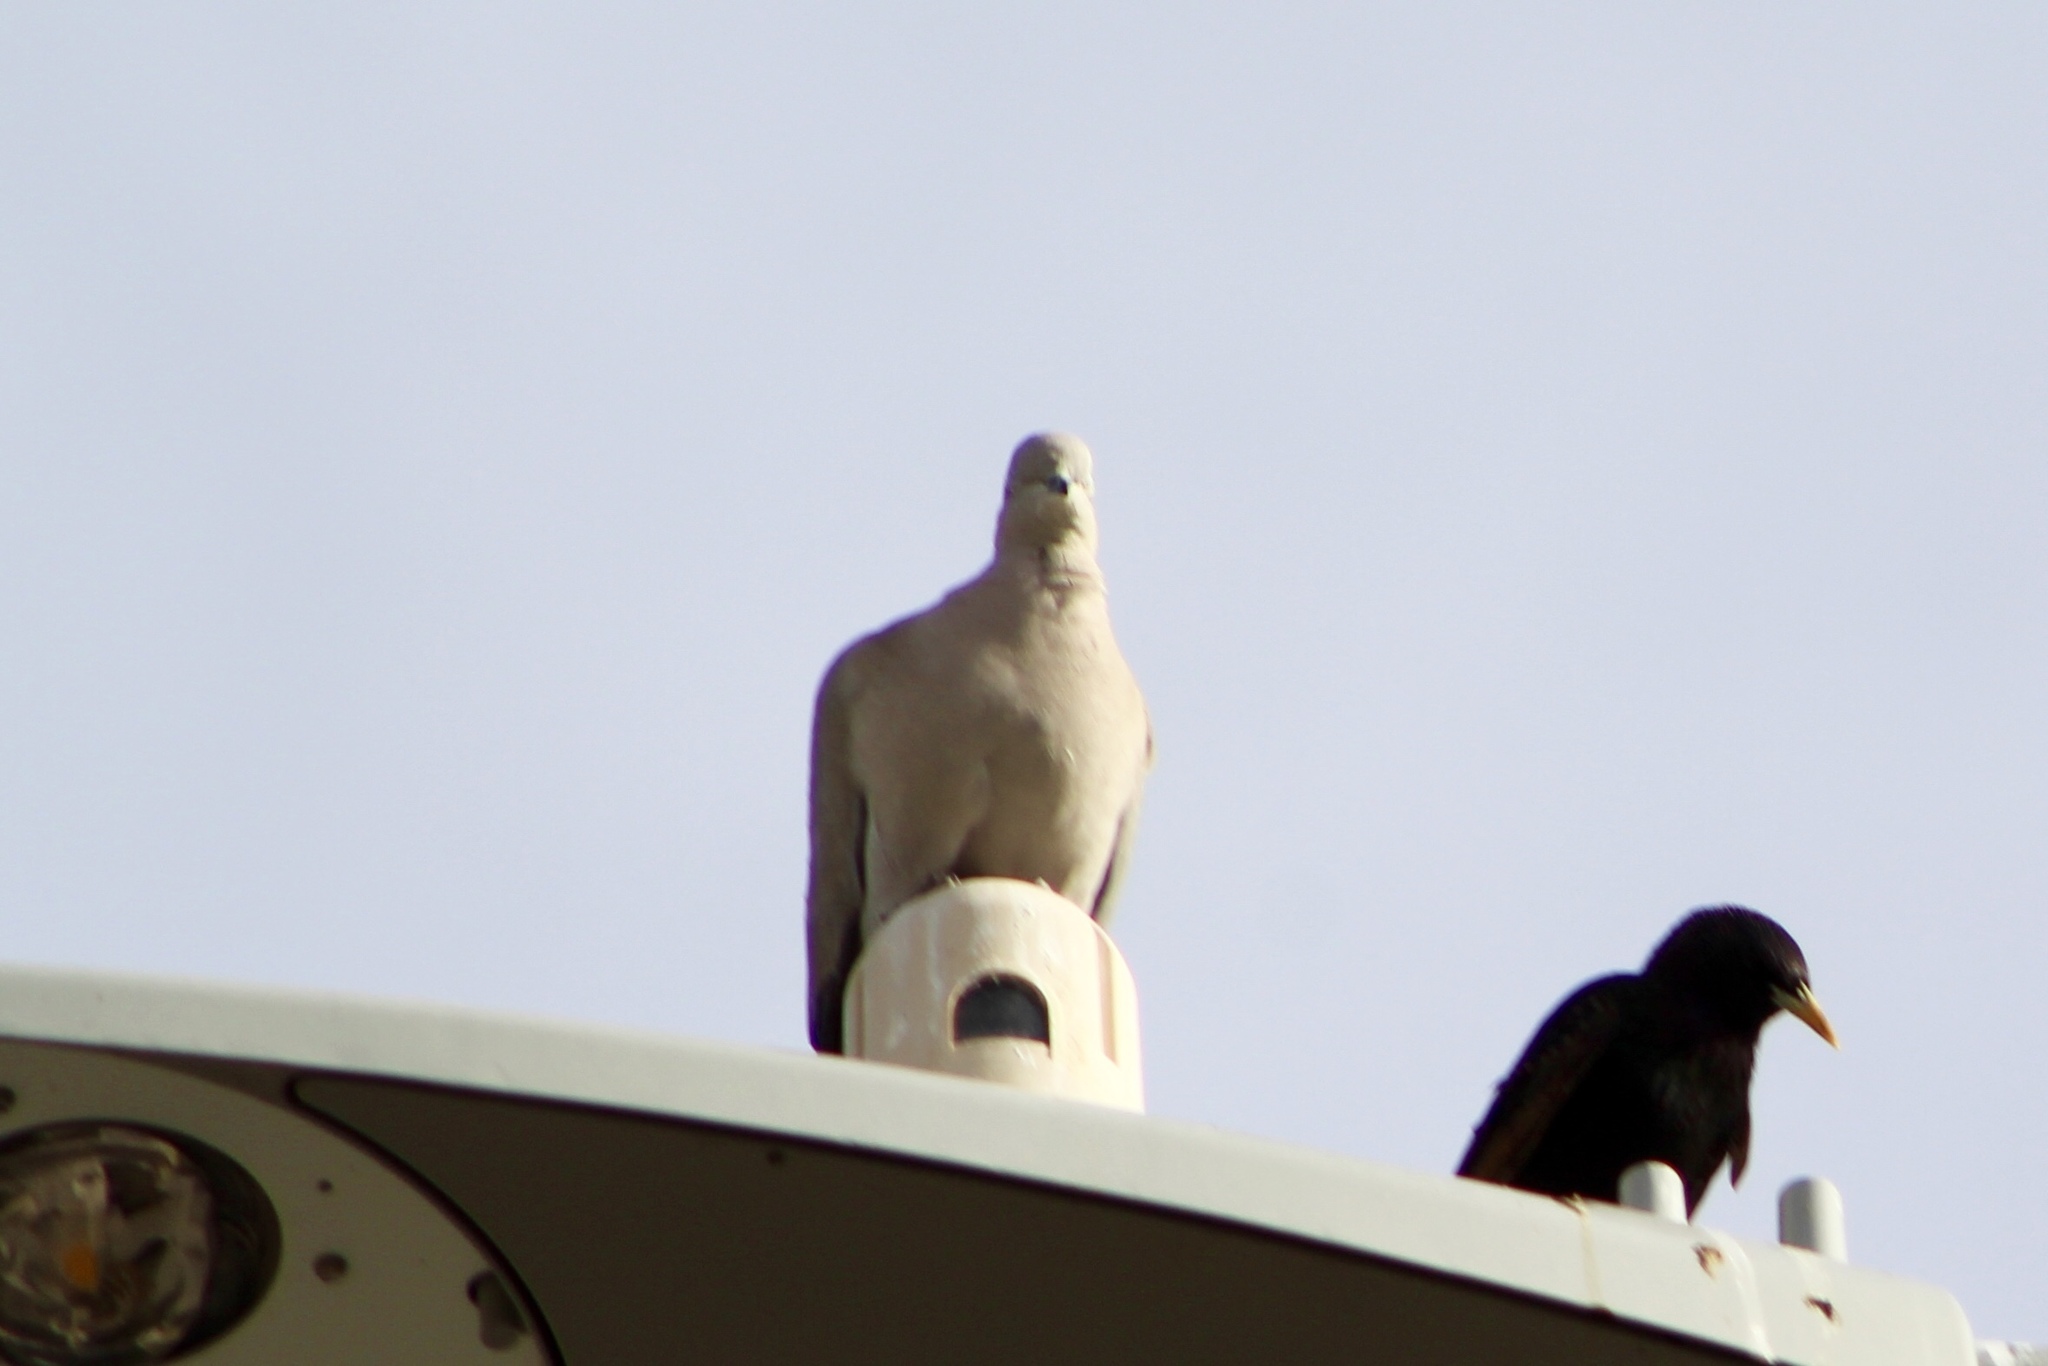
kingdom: Animalia
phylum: Chordata
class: Aves
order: Columbiformes
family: Columbidae
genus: Streptopelia
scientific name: Streptopelia decaocto
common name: Eurasian collared dove
